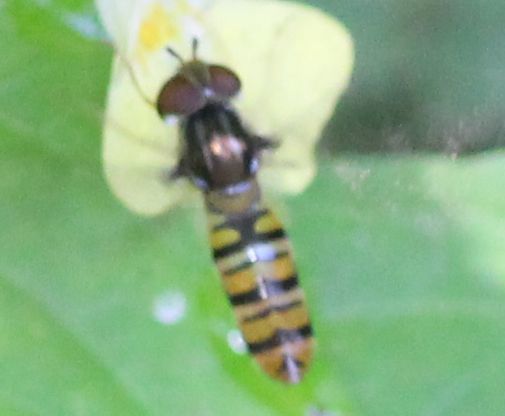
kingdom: Animalia
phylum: Arthropoda
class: Insecta
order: Diptera
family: Syrphidae
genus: Episyrphus
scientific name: Episyrphus balteatus
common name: Marmalade hoverfly
